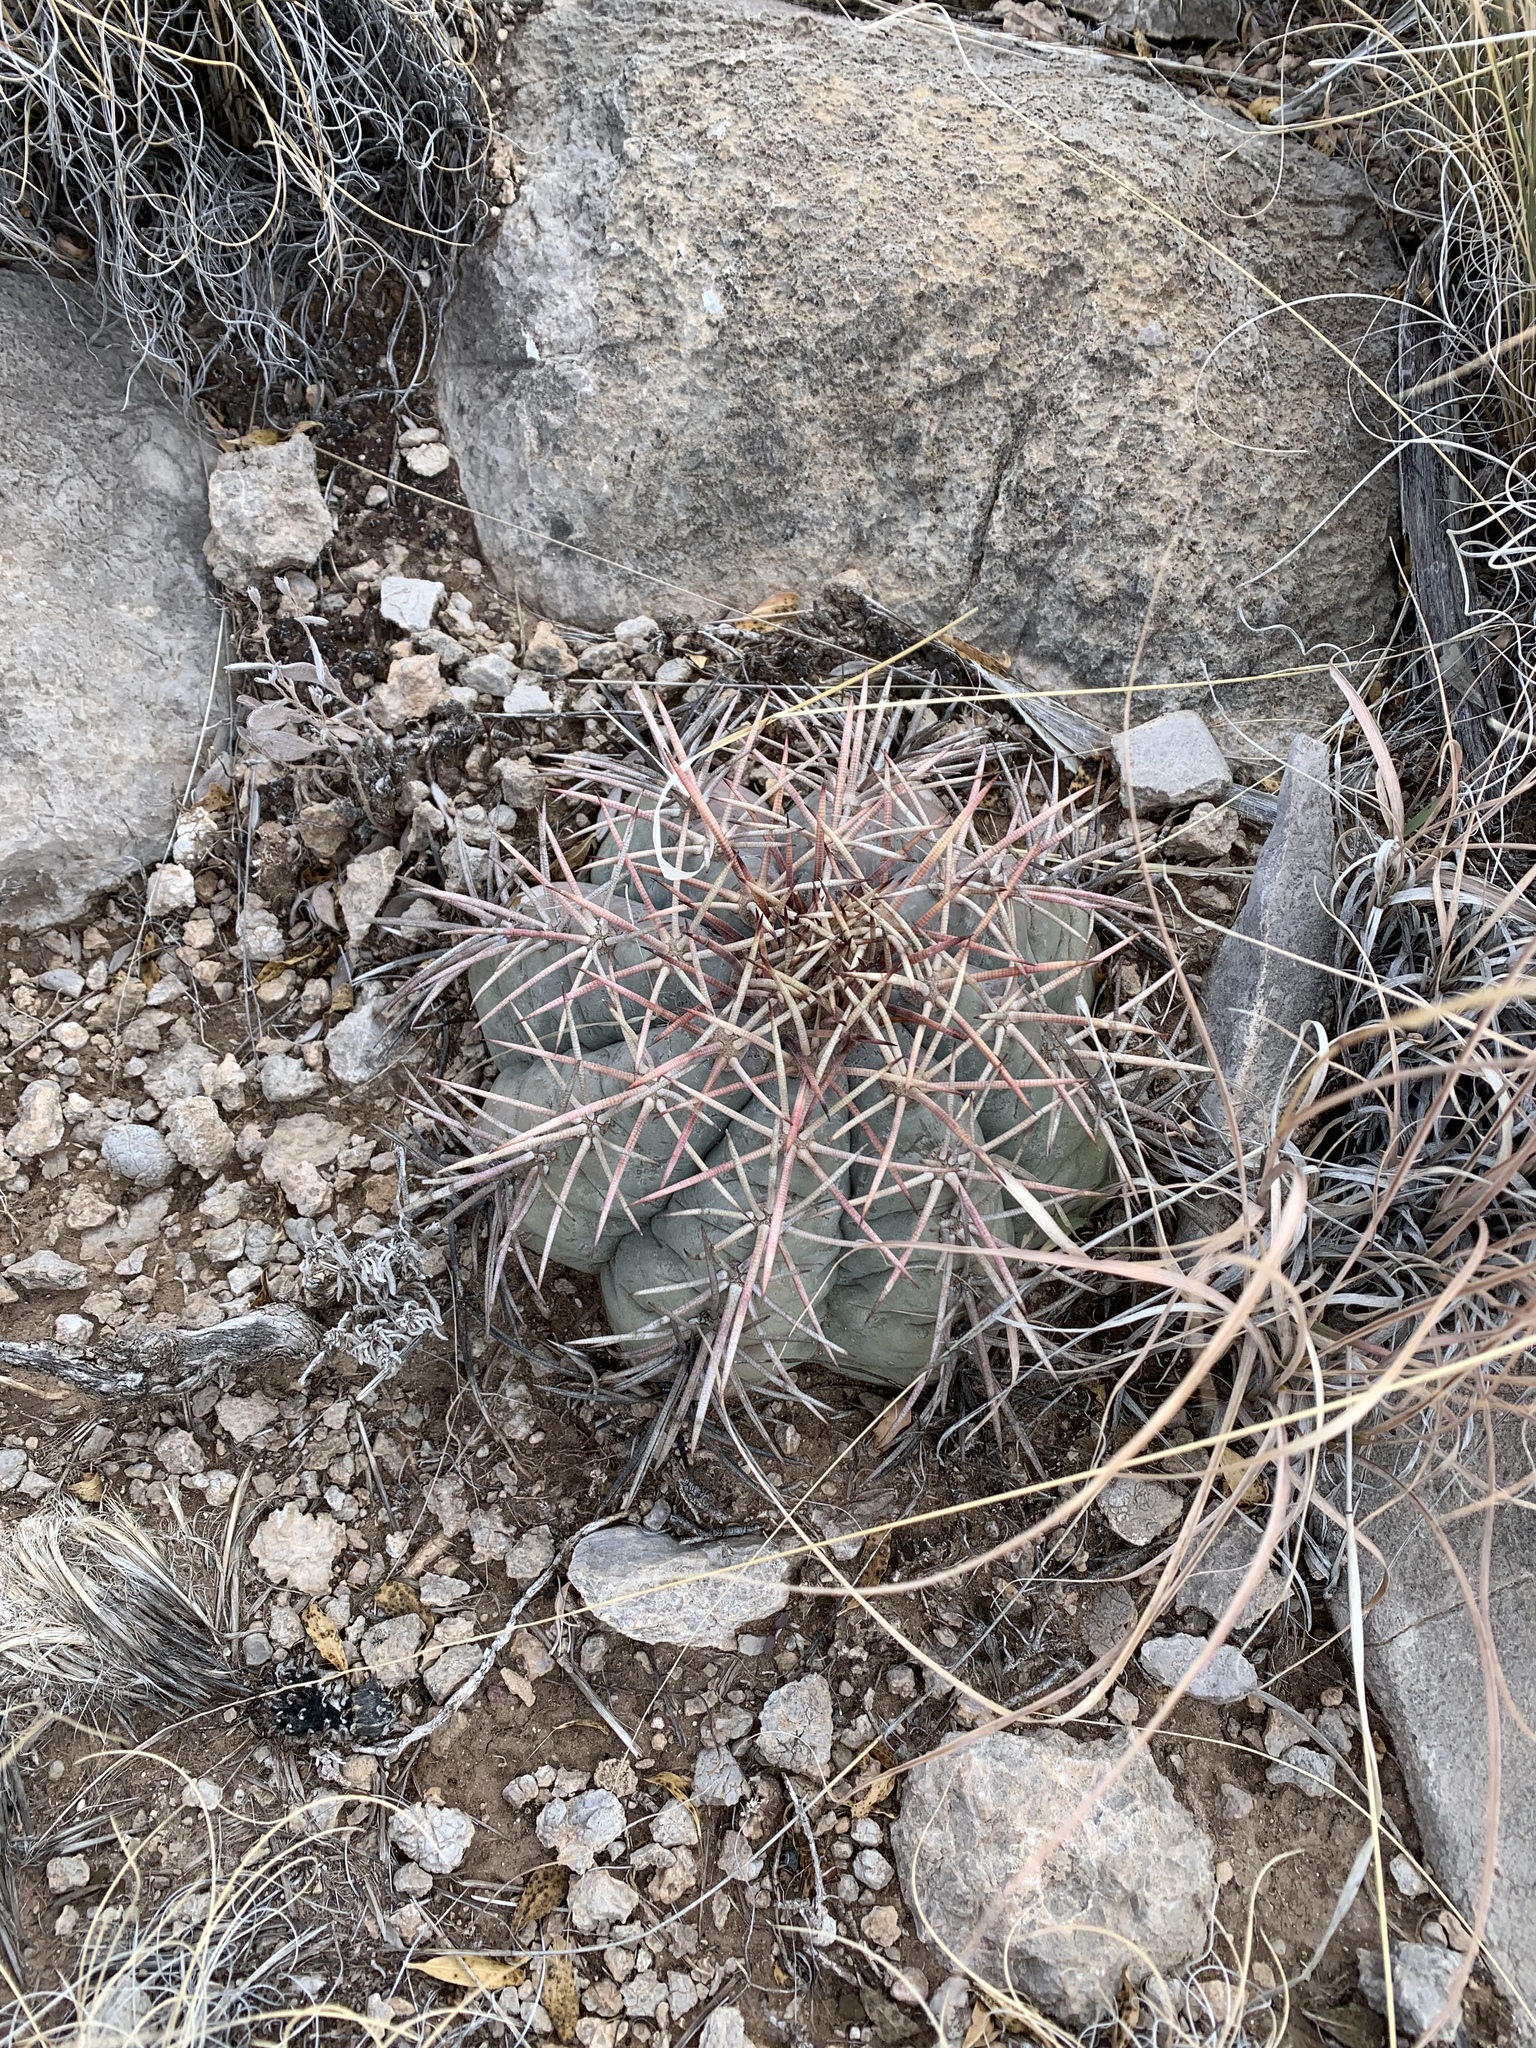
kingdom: Plantae
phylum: Tracheophyta
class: Magnoliopsida
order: Caryophyllales
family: Cactaceae
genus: Echinocactus
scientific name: Echinocactus horizonthalonius
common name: Devilshead
